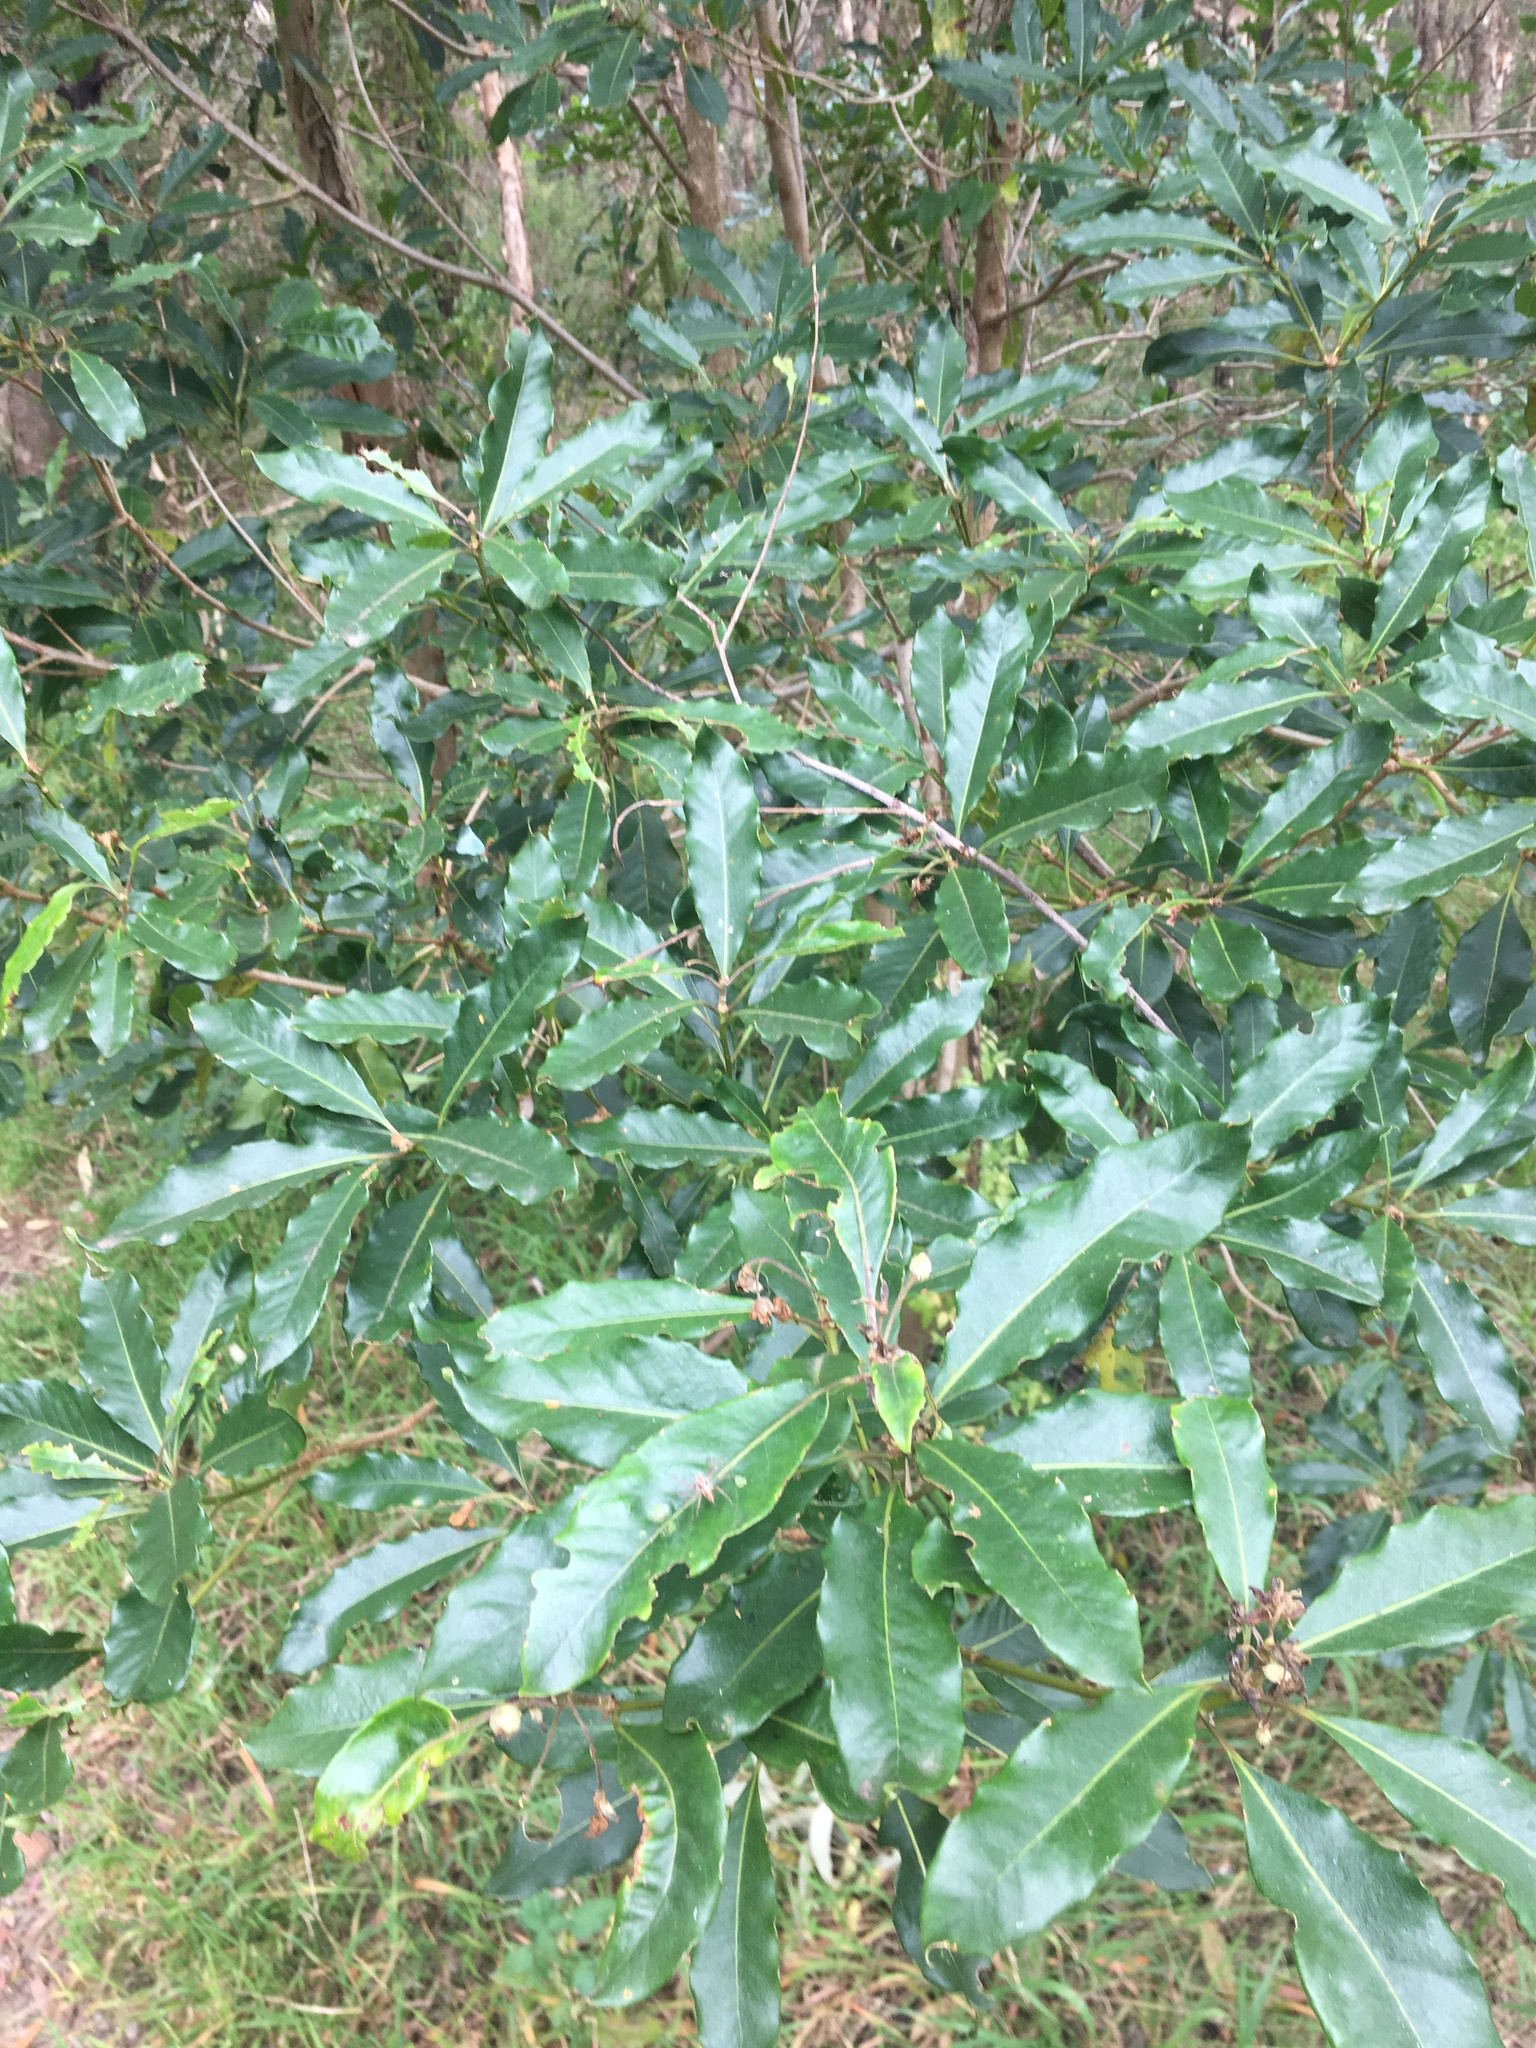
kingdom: Plantae
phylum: Tracheophyta
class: Magnoliopsida
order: Apiales
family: Pittosporaceae
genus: Pittosporum
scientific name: Pittosporum undulatum
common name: Australian cheesewood
